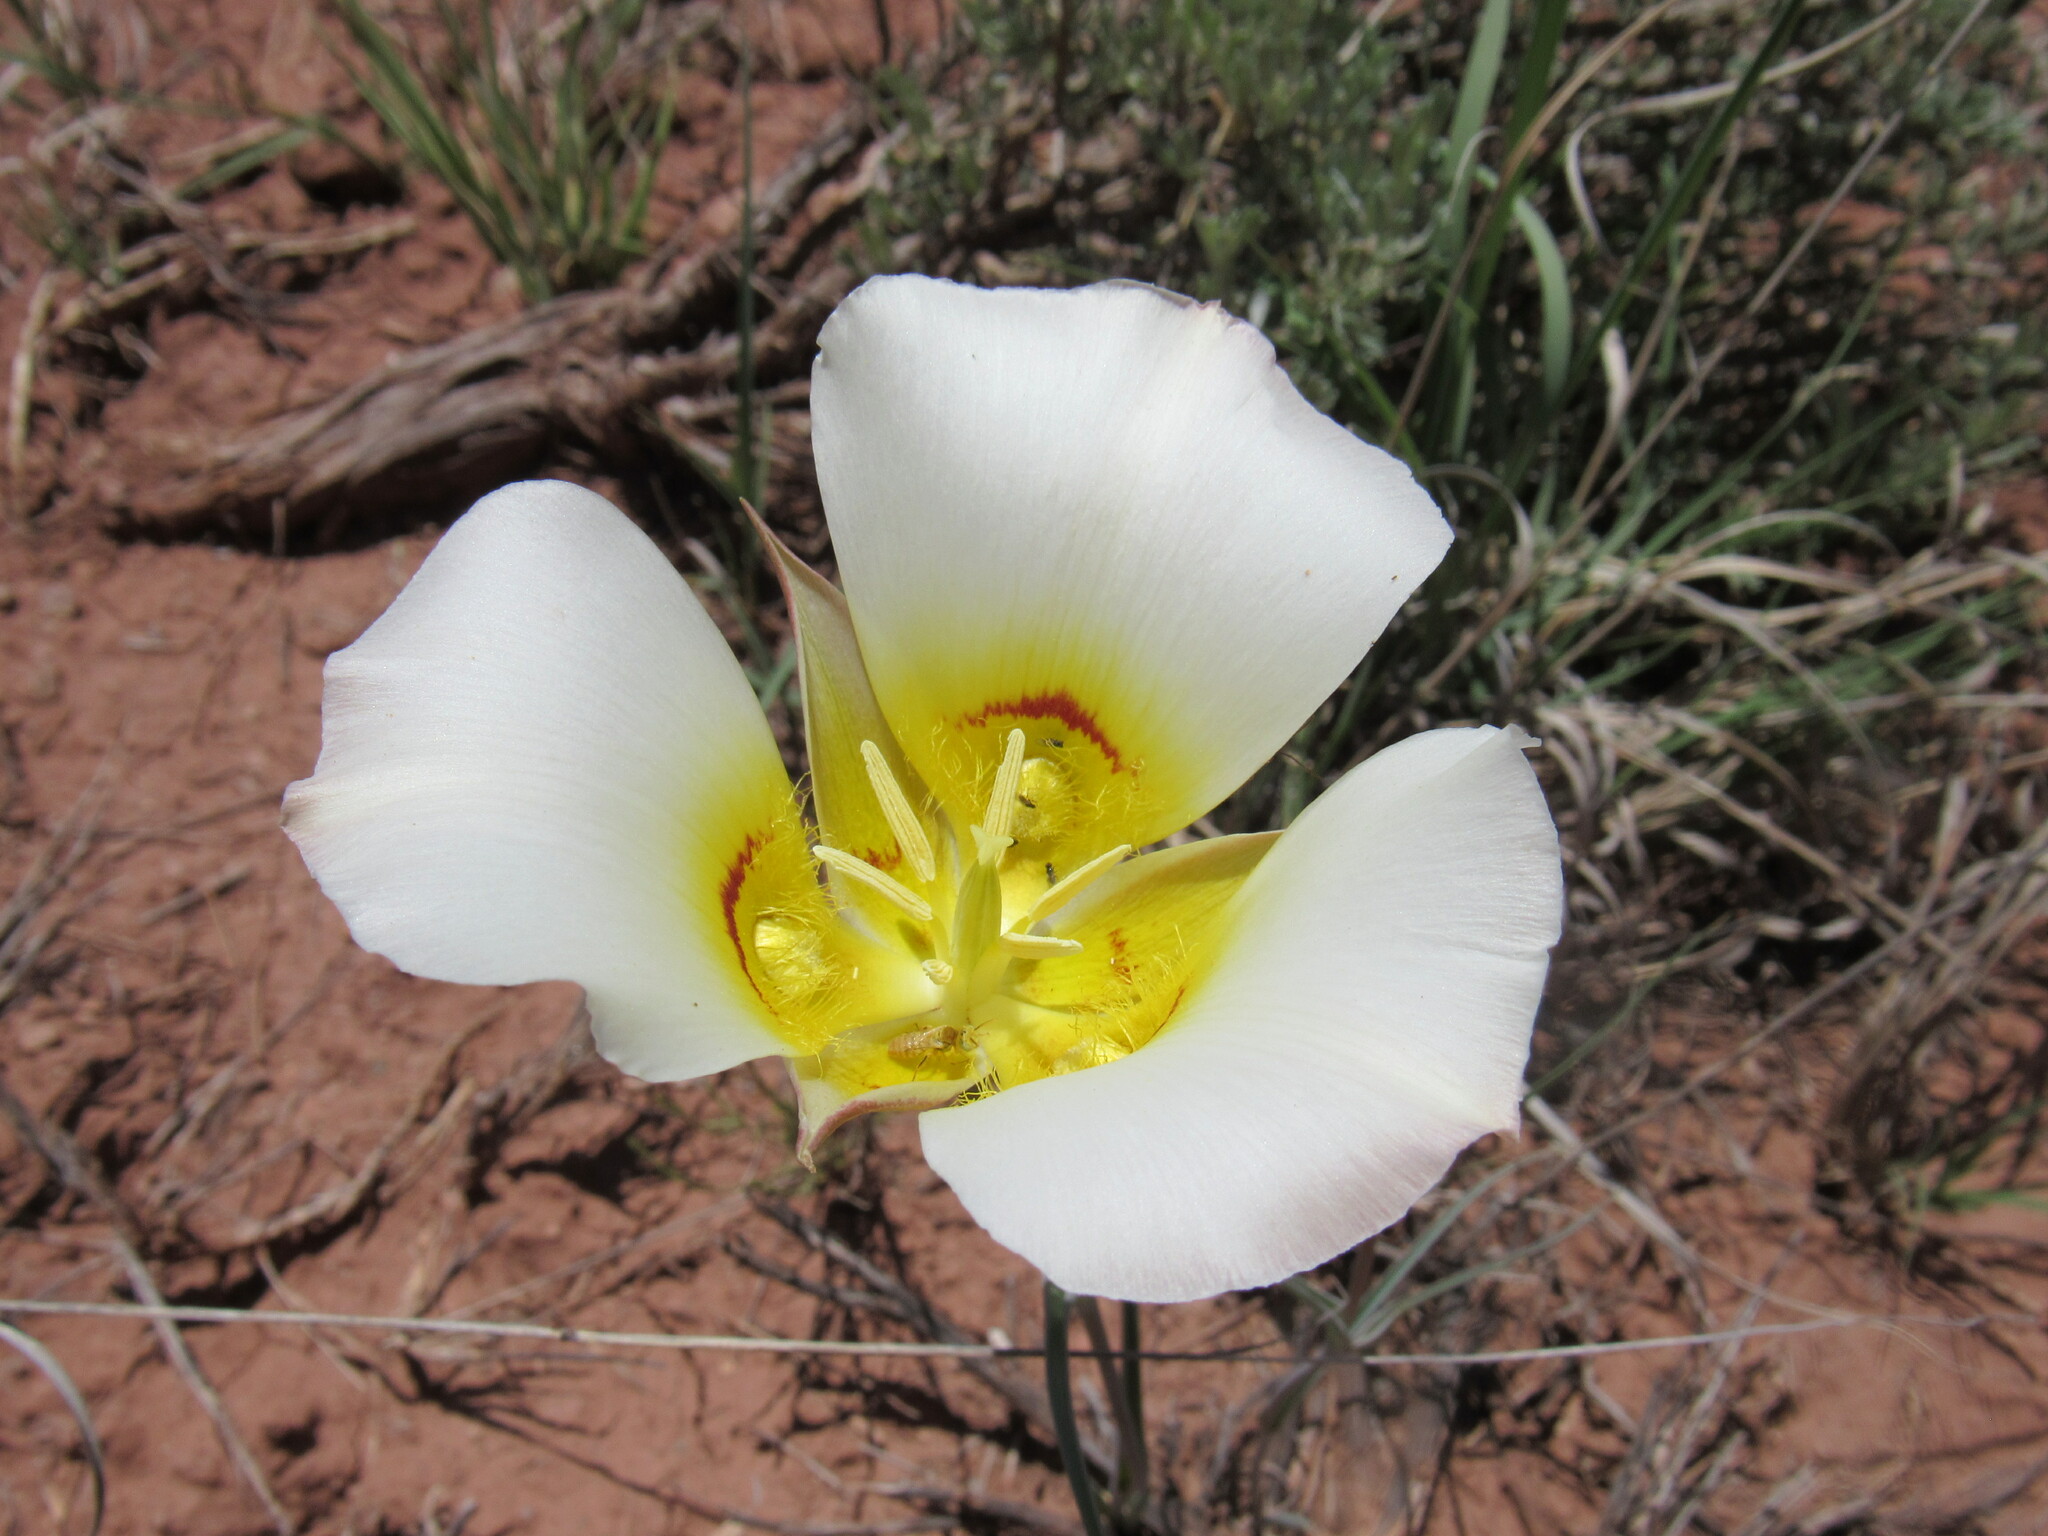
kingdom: Animalia
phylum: Arthropoda
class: Insecta
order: Hymenoptera
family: Andrenidae
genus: Perdita
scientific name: Perdita eriogoni
